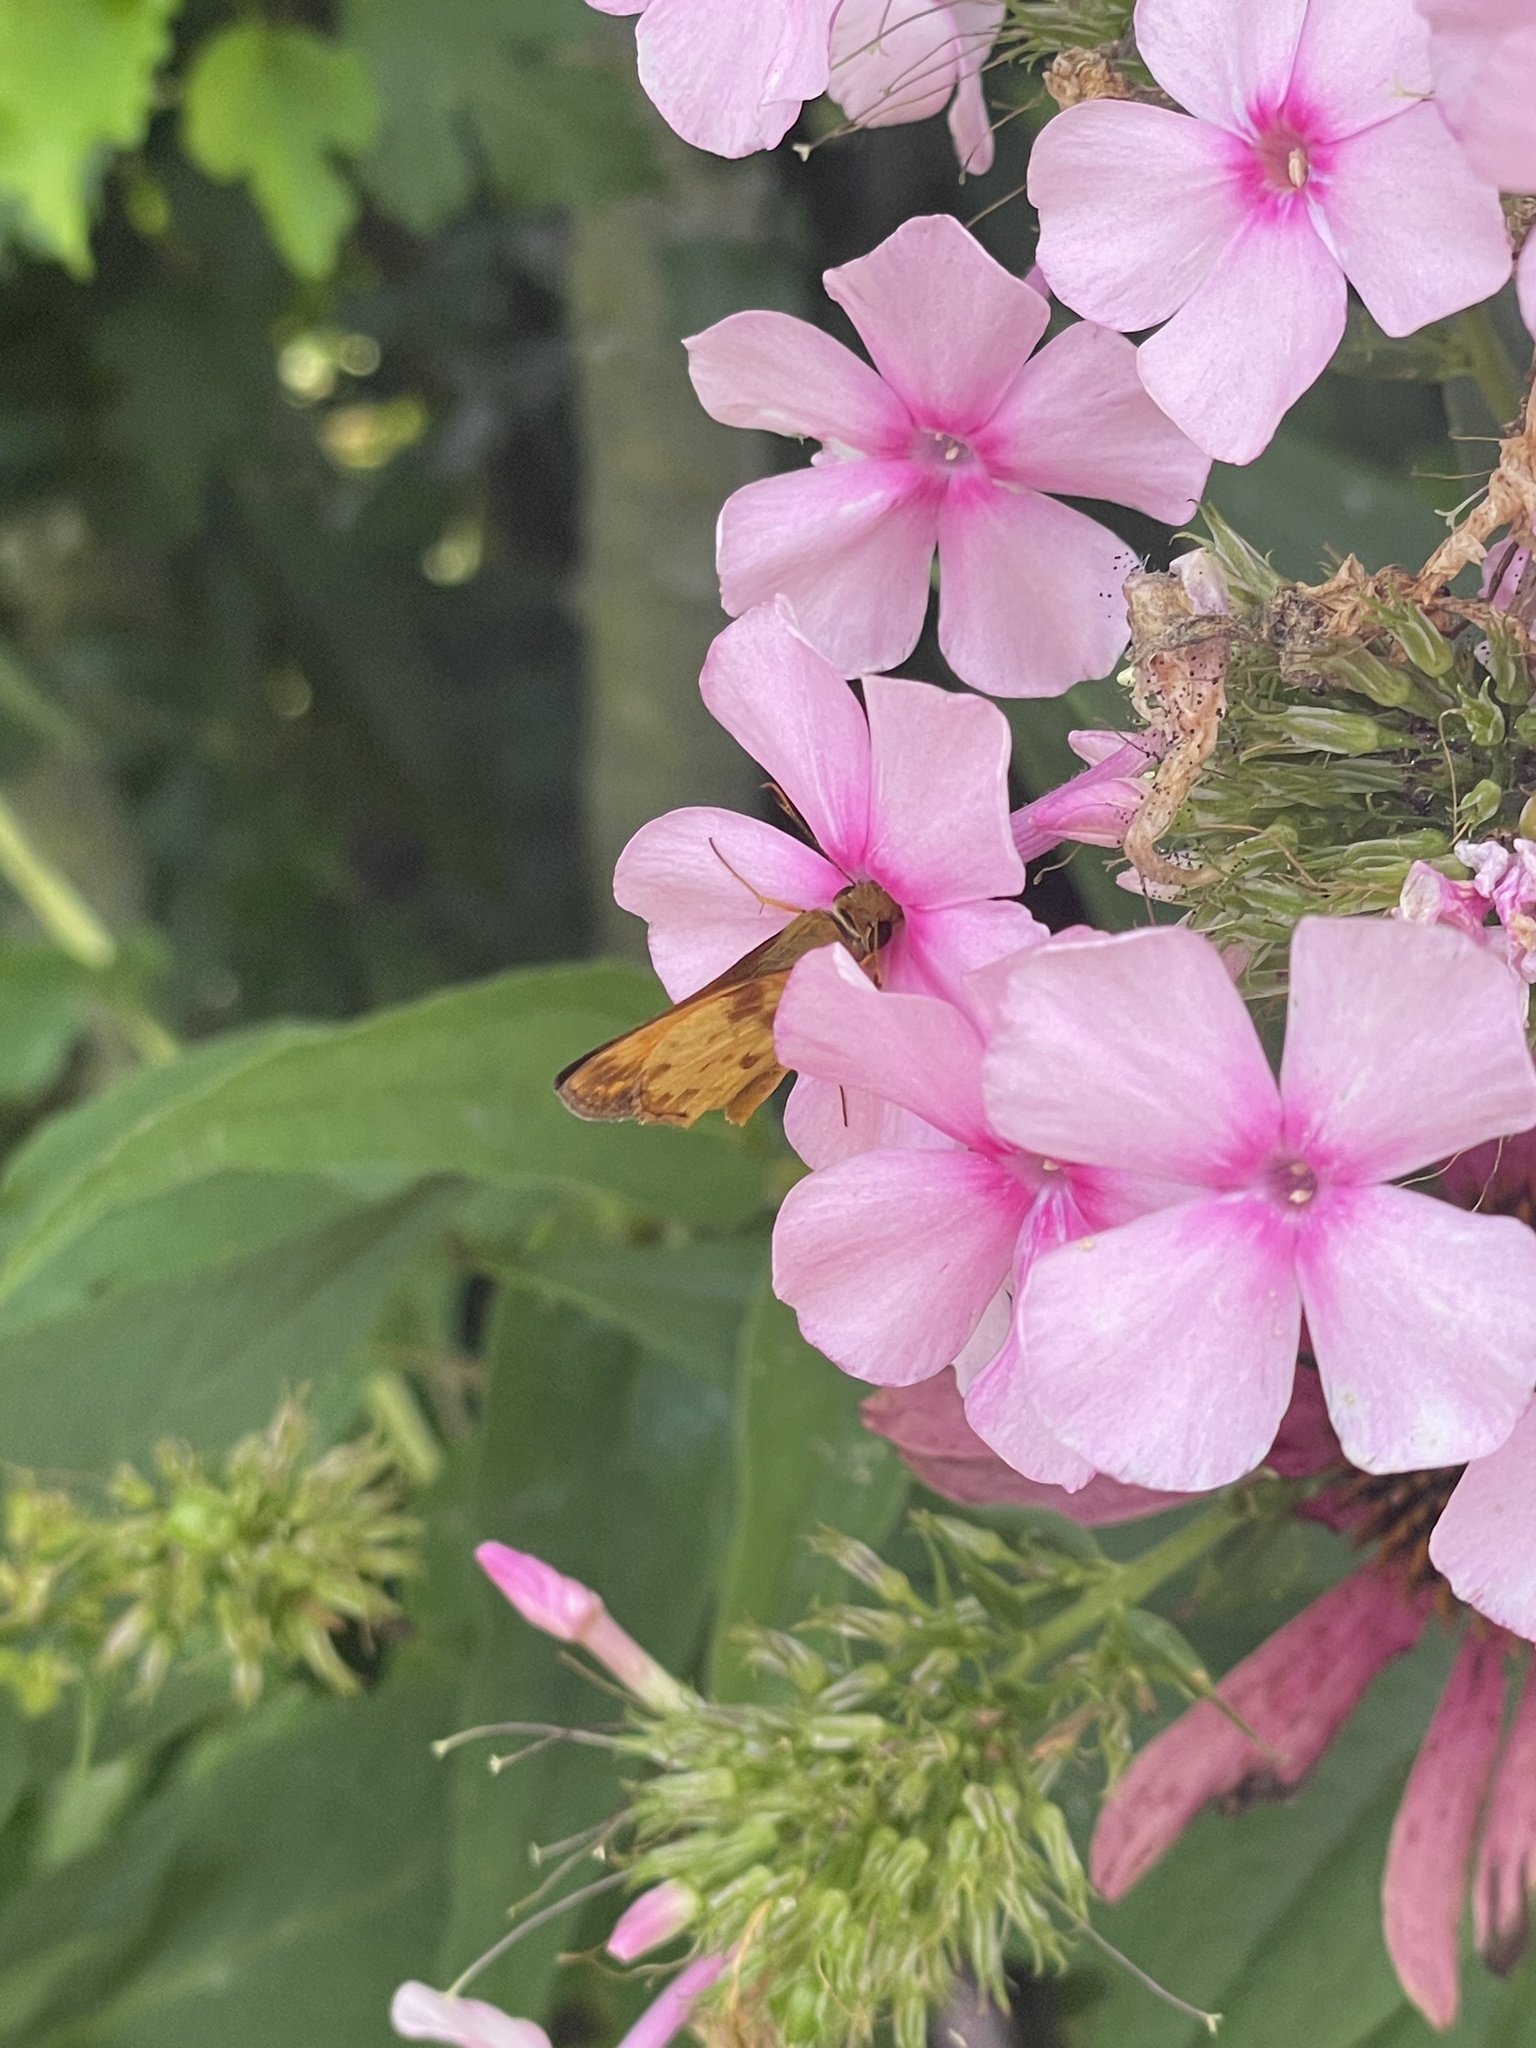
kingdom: Animalia
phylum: Arthropoda
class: Insecta
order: Lepidoptera
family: Hesperiidae
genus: Lon
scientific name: Lon zabulon
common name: Zabulon skipper
